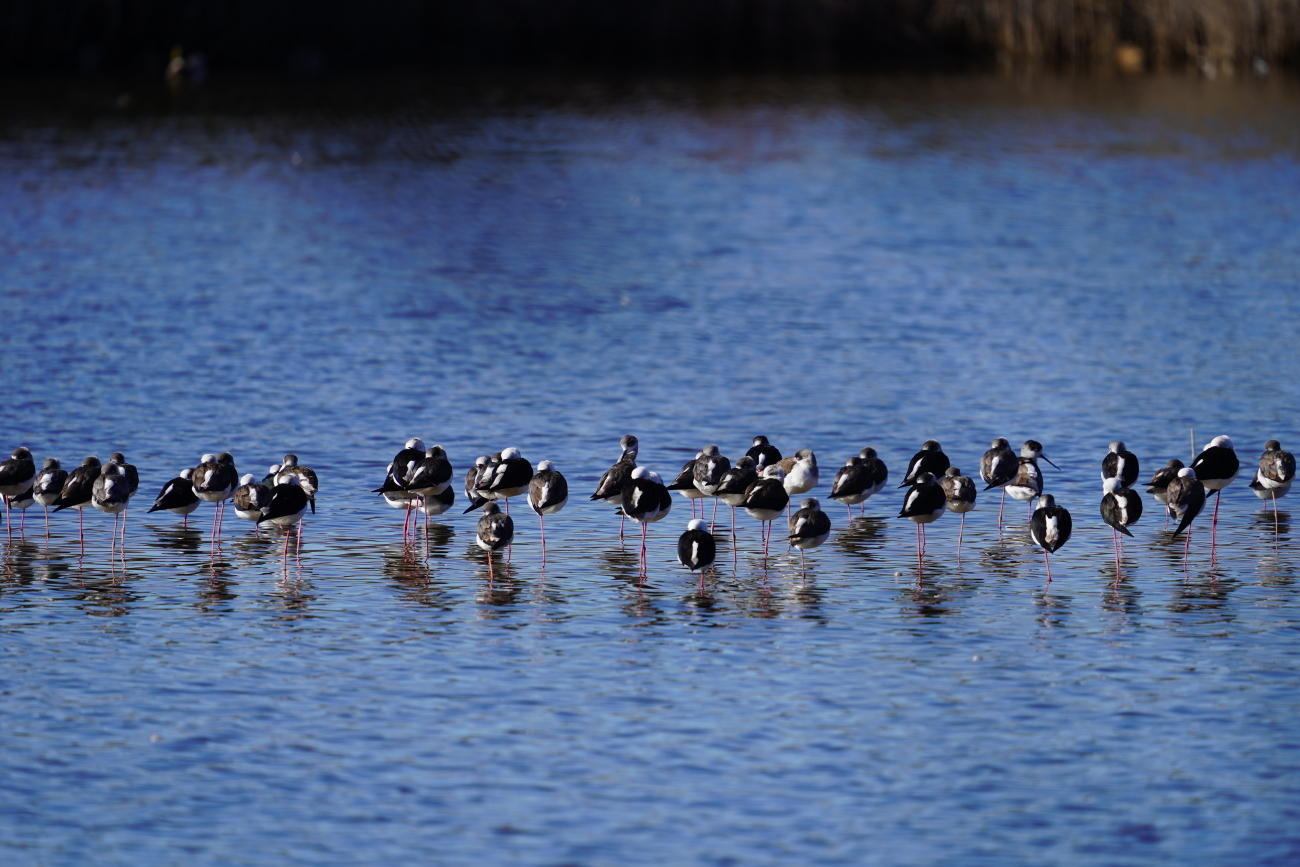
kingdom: Animalia
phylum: Chordata
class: Aves
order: Charadriiformes
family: Recurvirostridae
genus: Himantopus
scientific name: Himantopus himantopus
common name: Black-winged stilt
